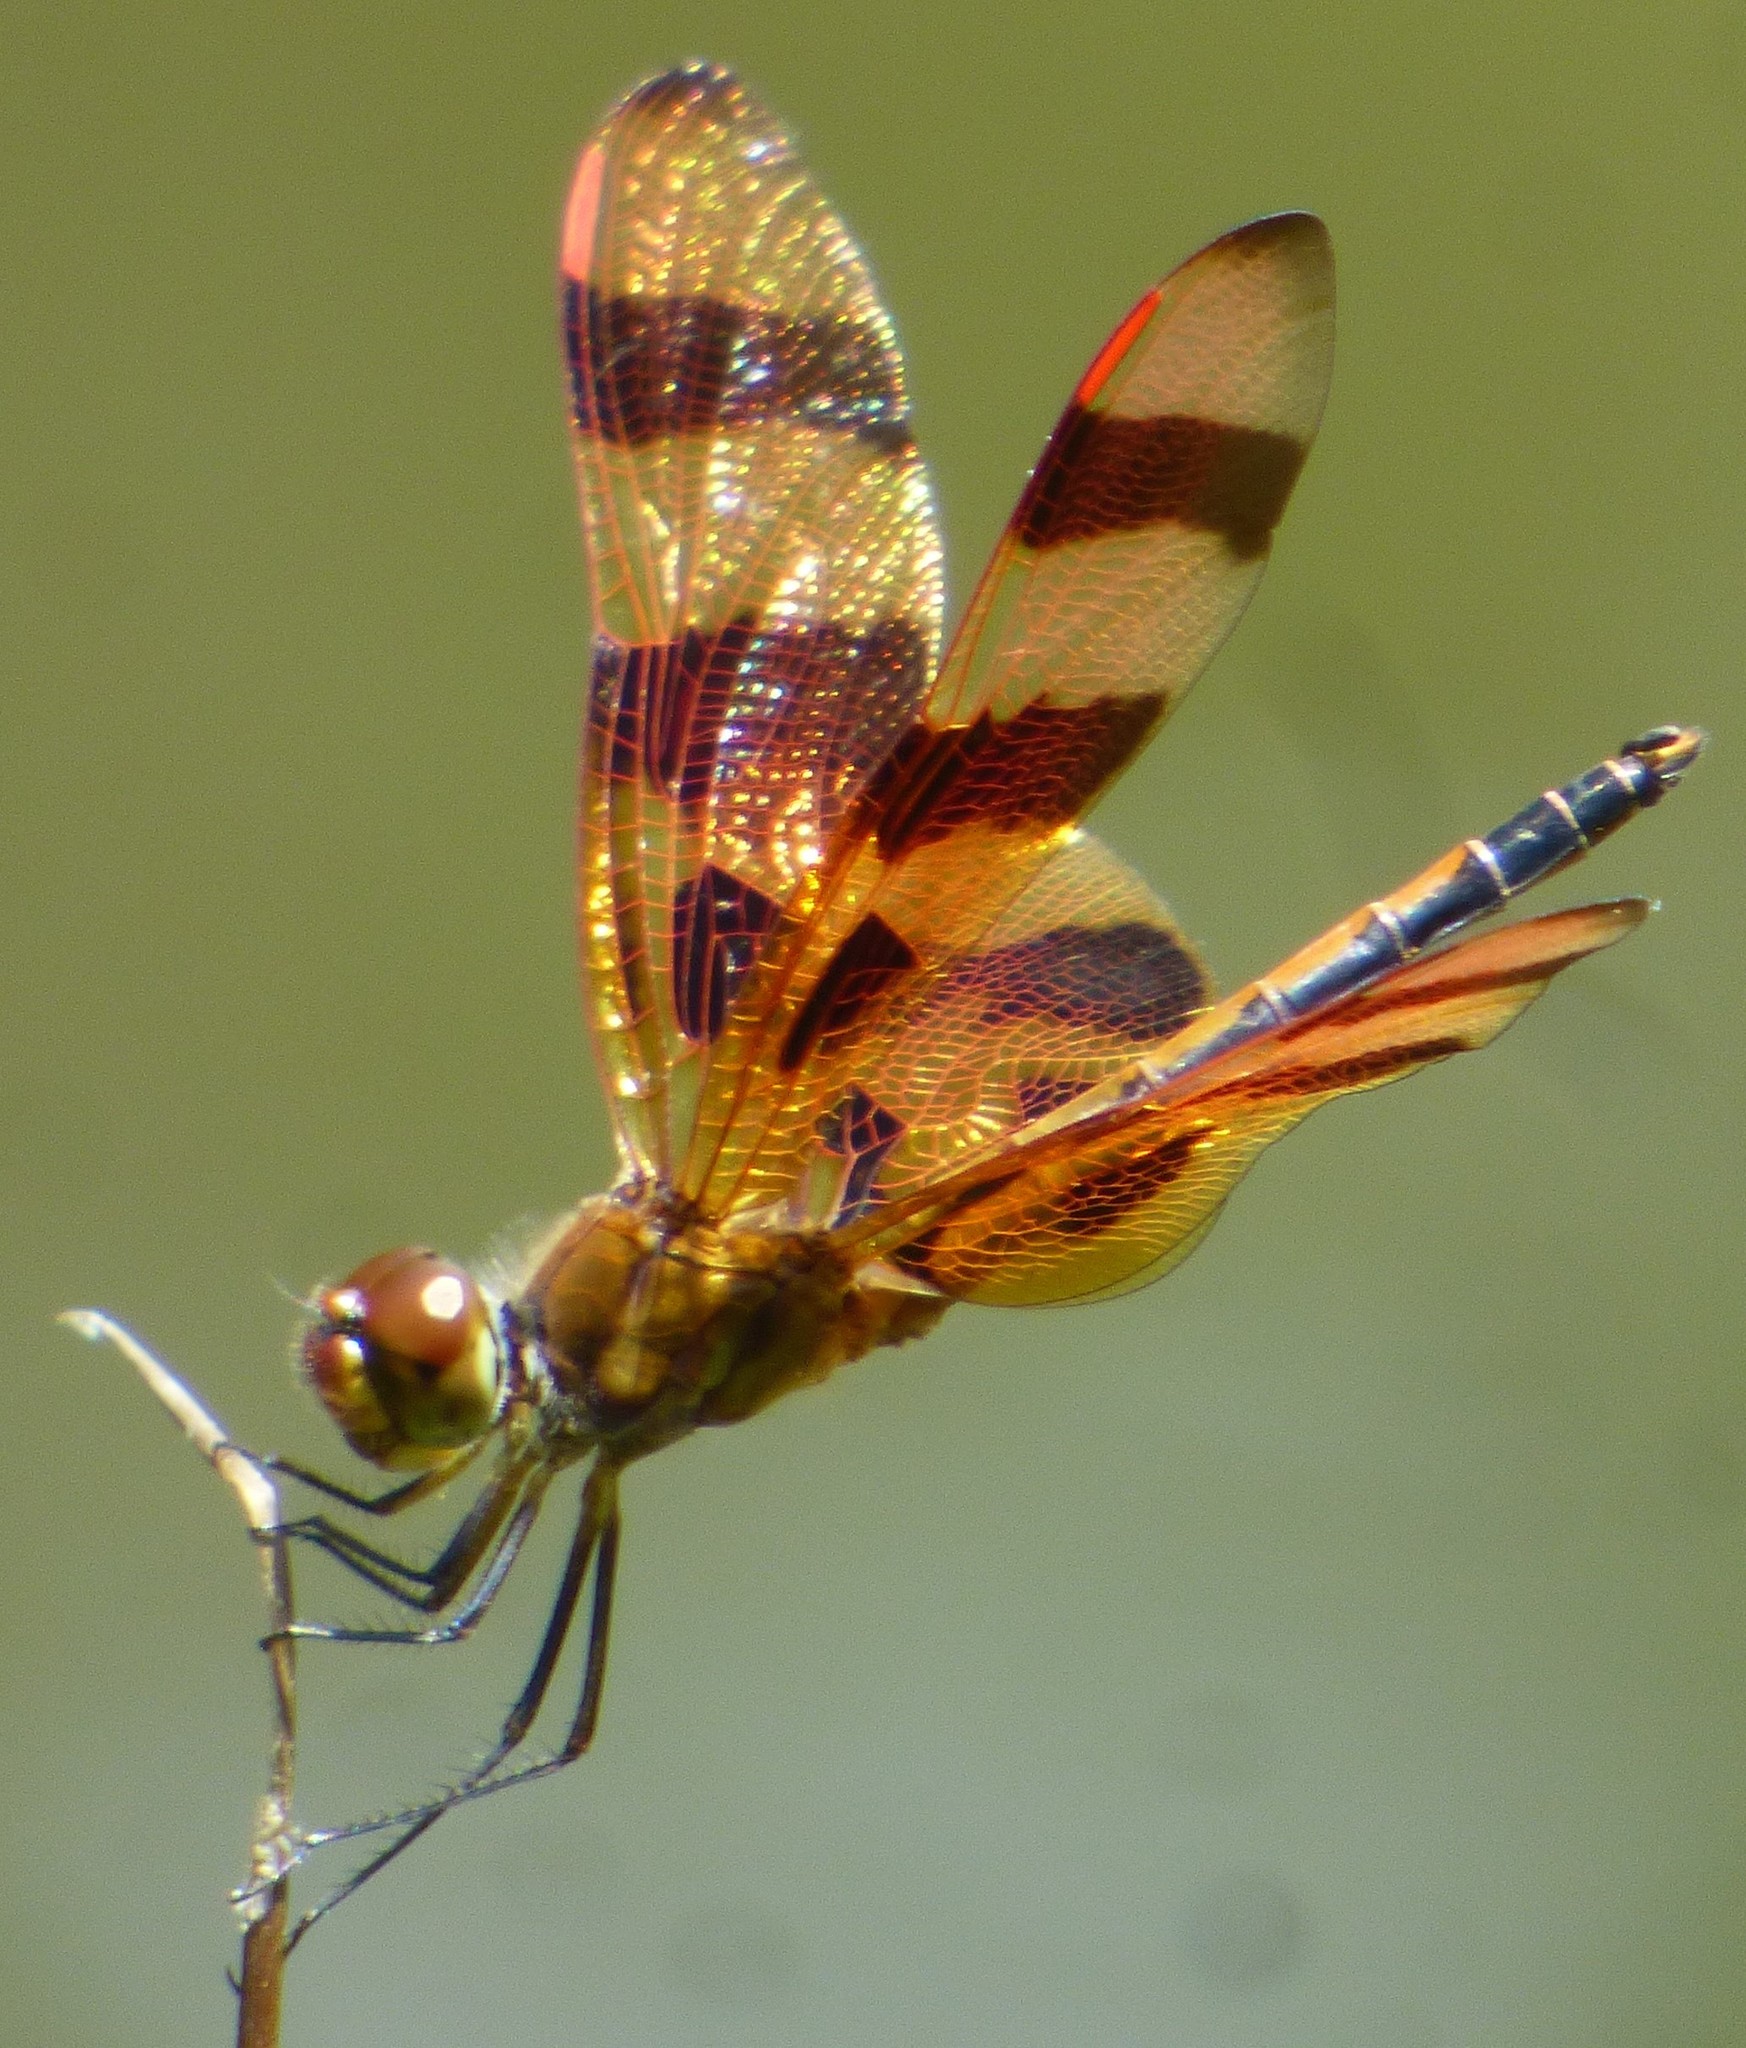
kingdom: Animalia
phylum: Arthropoda
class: Insecta
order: Odonata
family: Libellulidae
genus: Celithemis
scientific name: Celithemis eponina
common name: Halloween pennant
